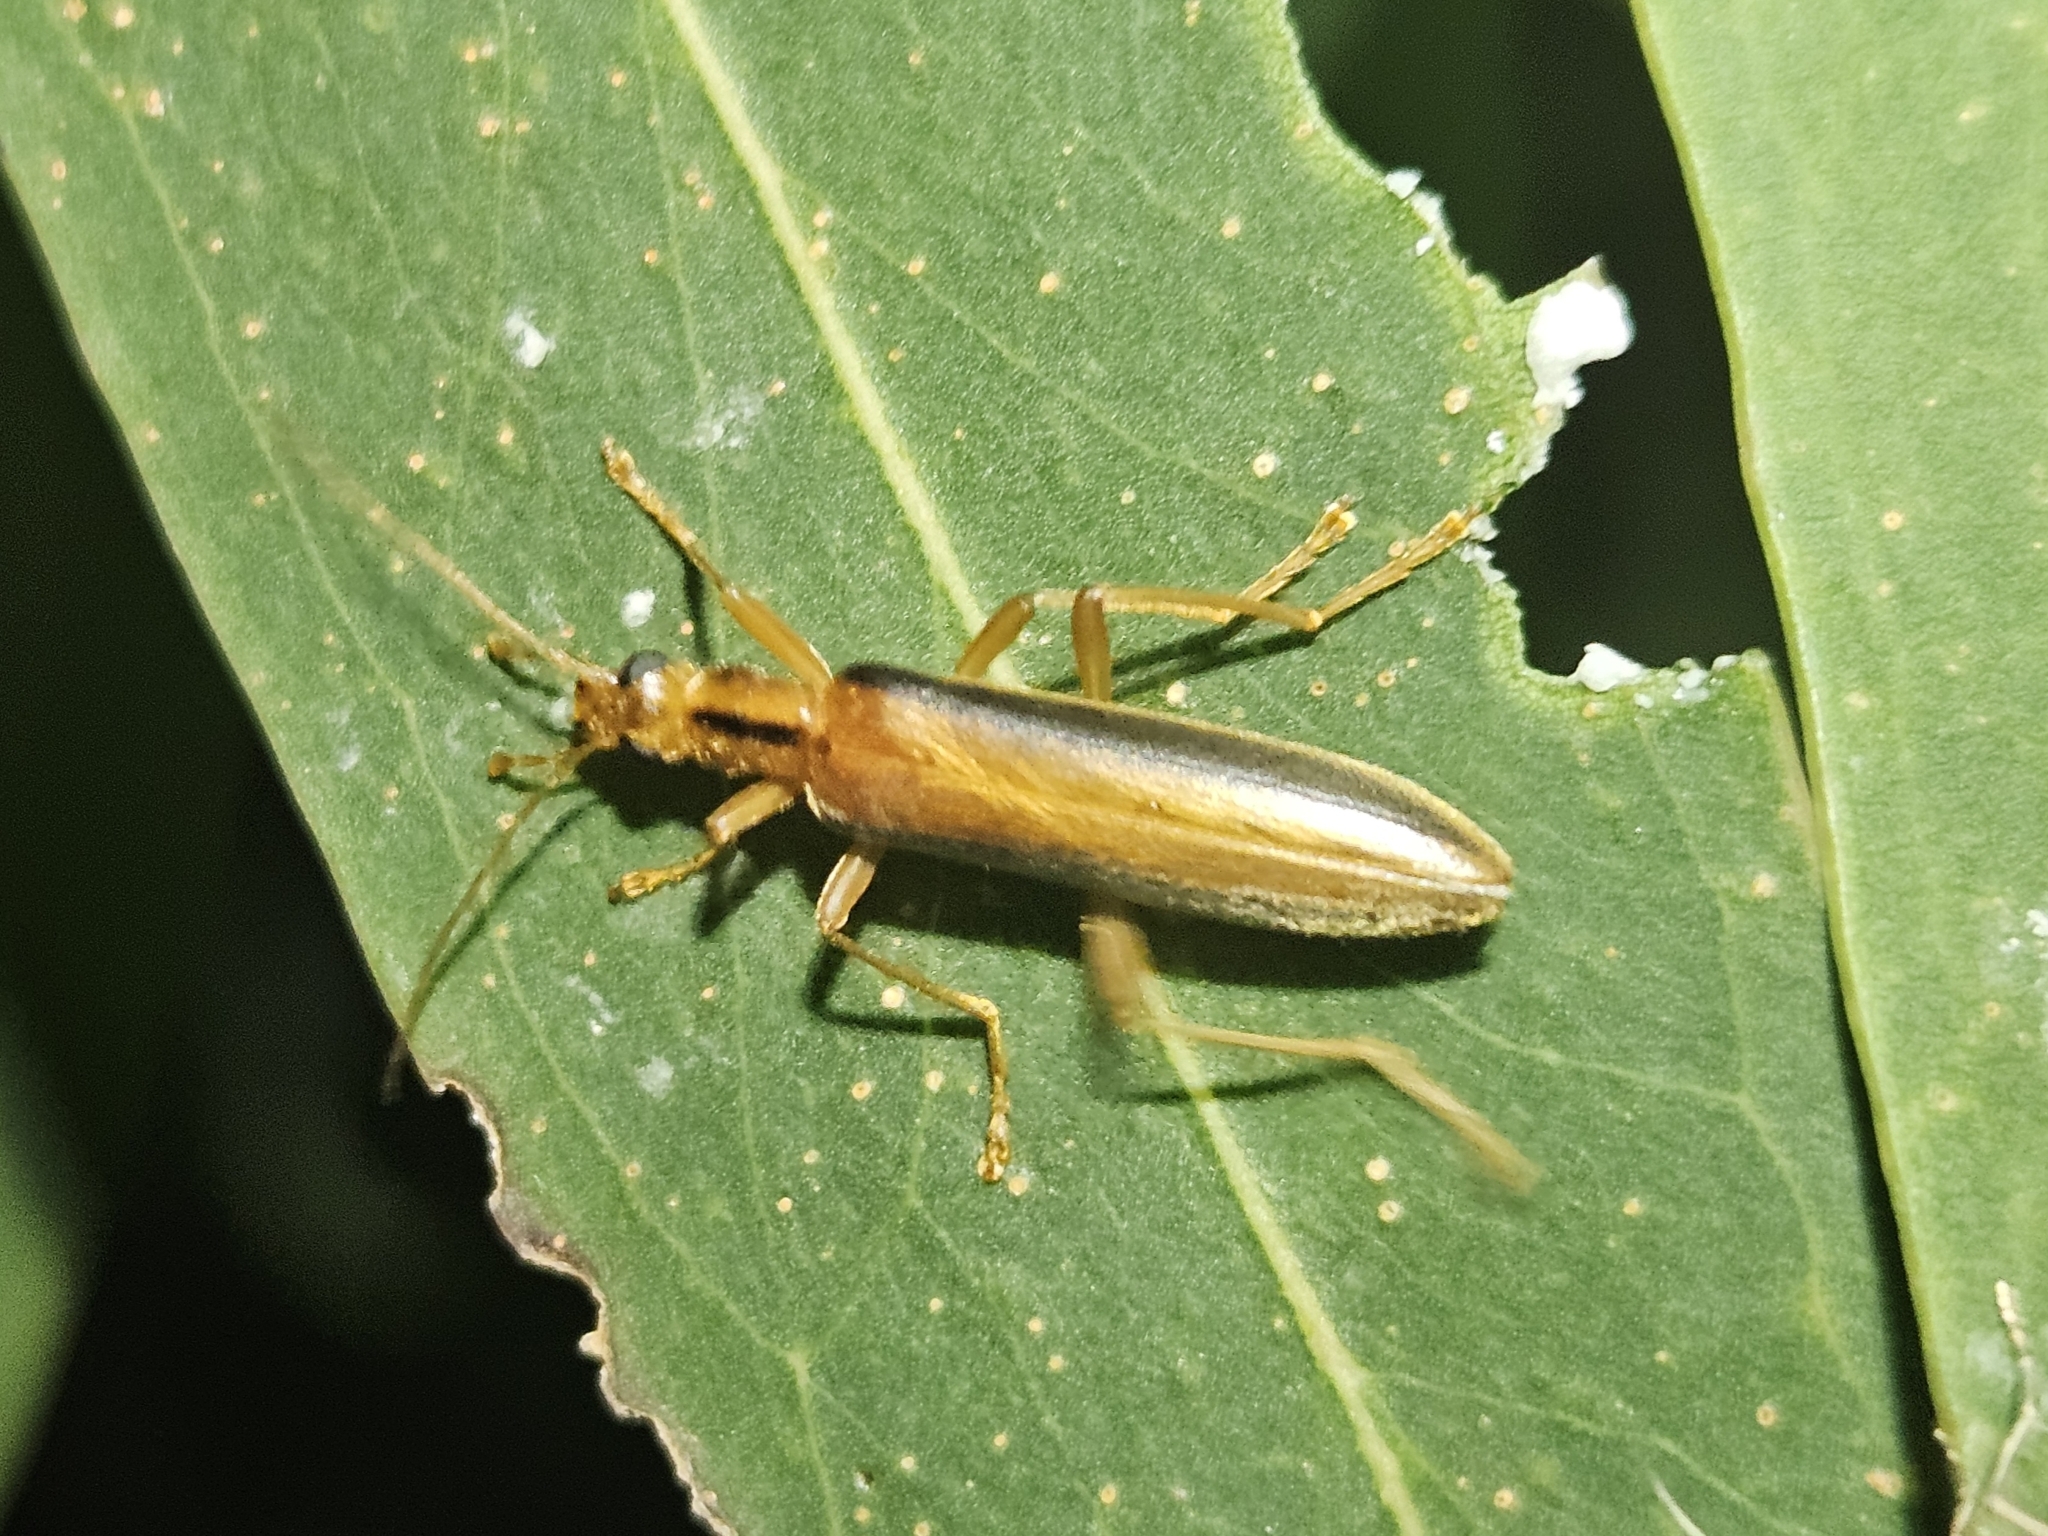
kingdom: Animalia
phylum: Arthropoda
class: Insecta
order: Coleoptera
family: Oedemeridae
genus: Thelyphassa
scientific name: Thelyphassa
